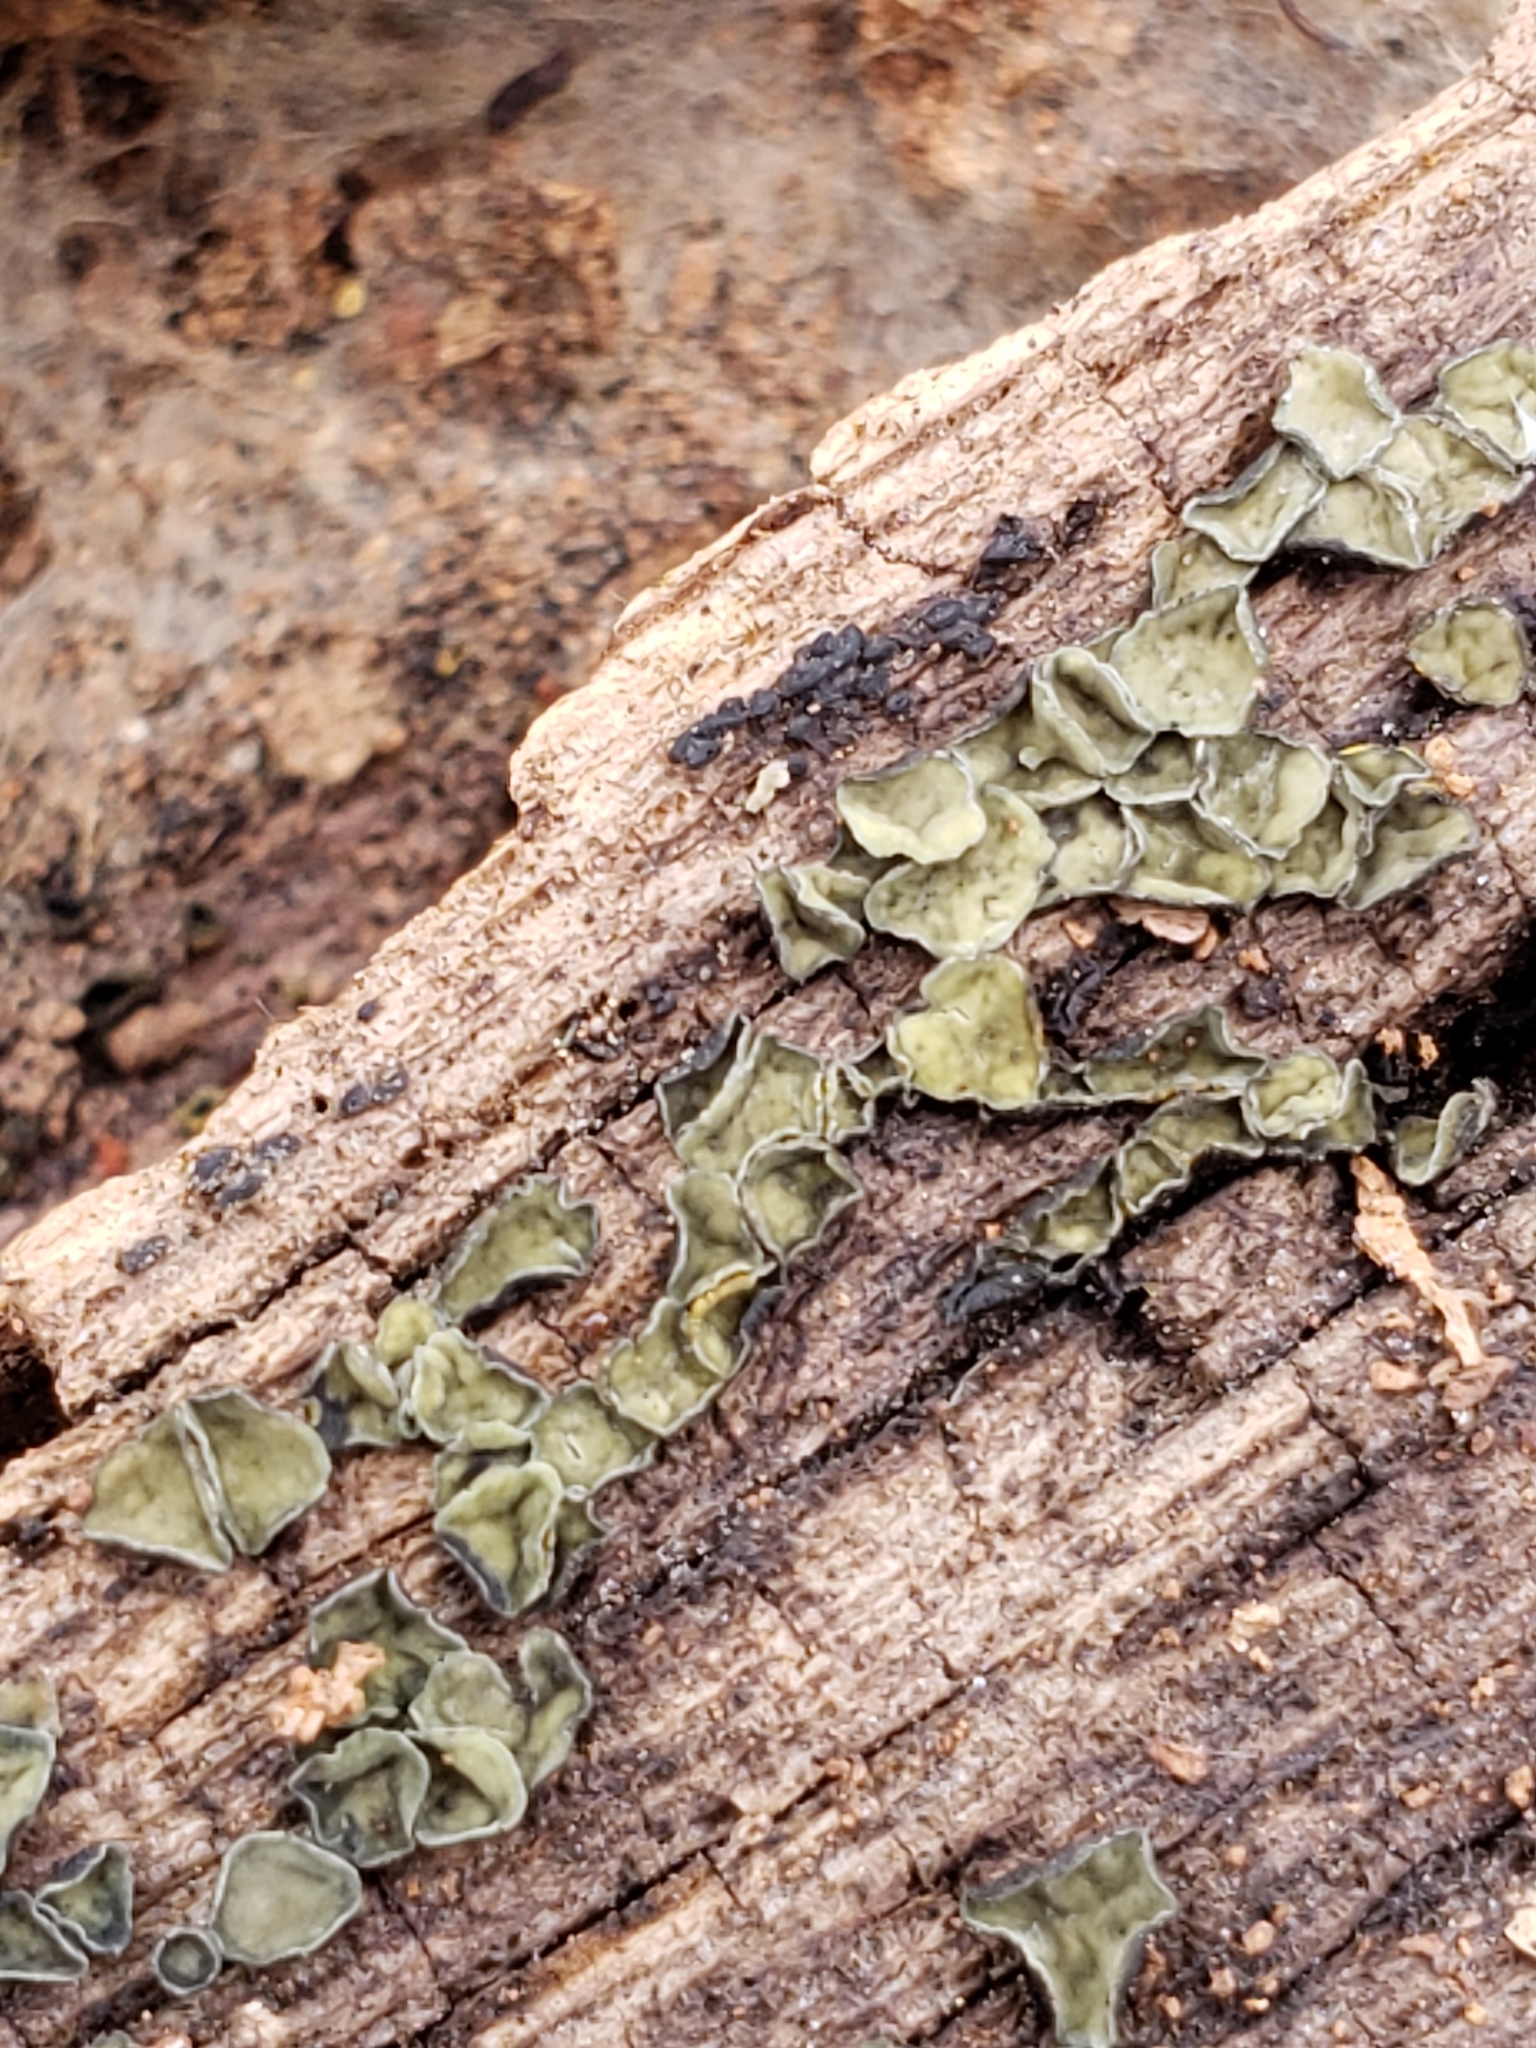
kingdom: Fungi
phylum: Ascomycota
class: Leotiomycetes
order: Helotiales
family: Chlorospleniaceae
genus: Chlorosplenium
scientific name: Chlorosplenium chlora
